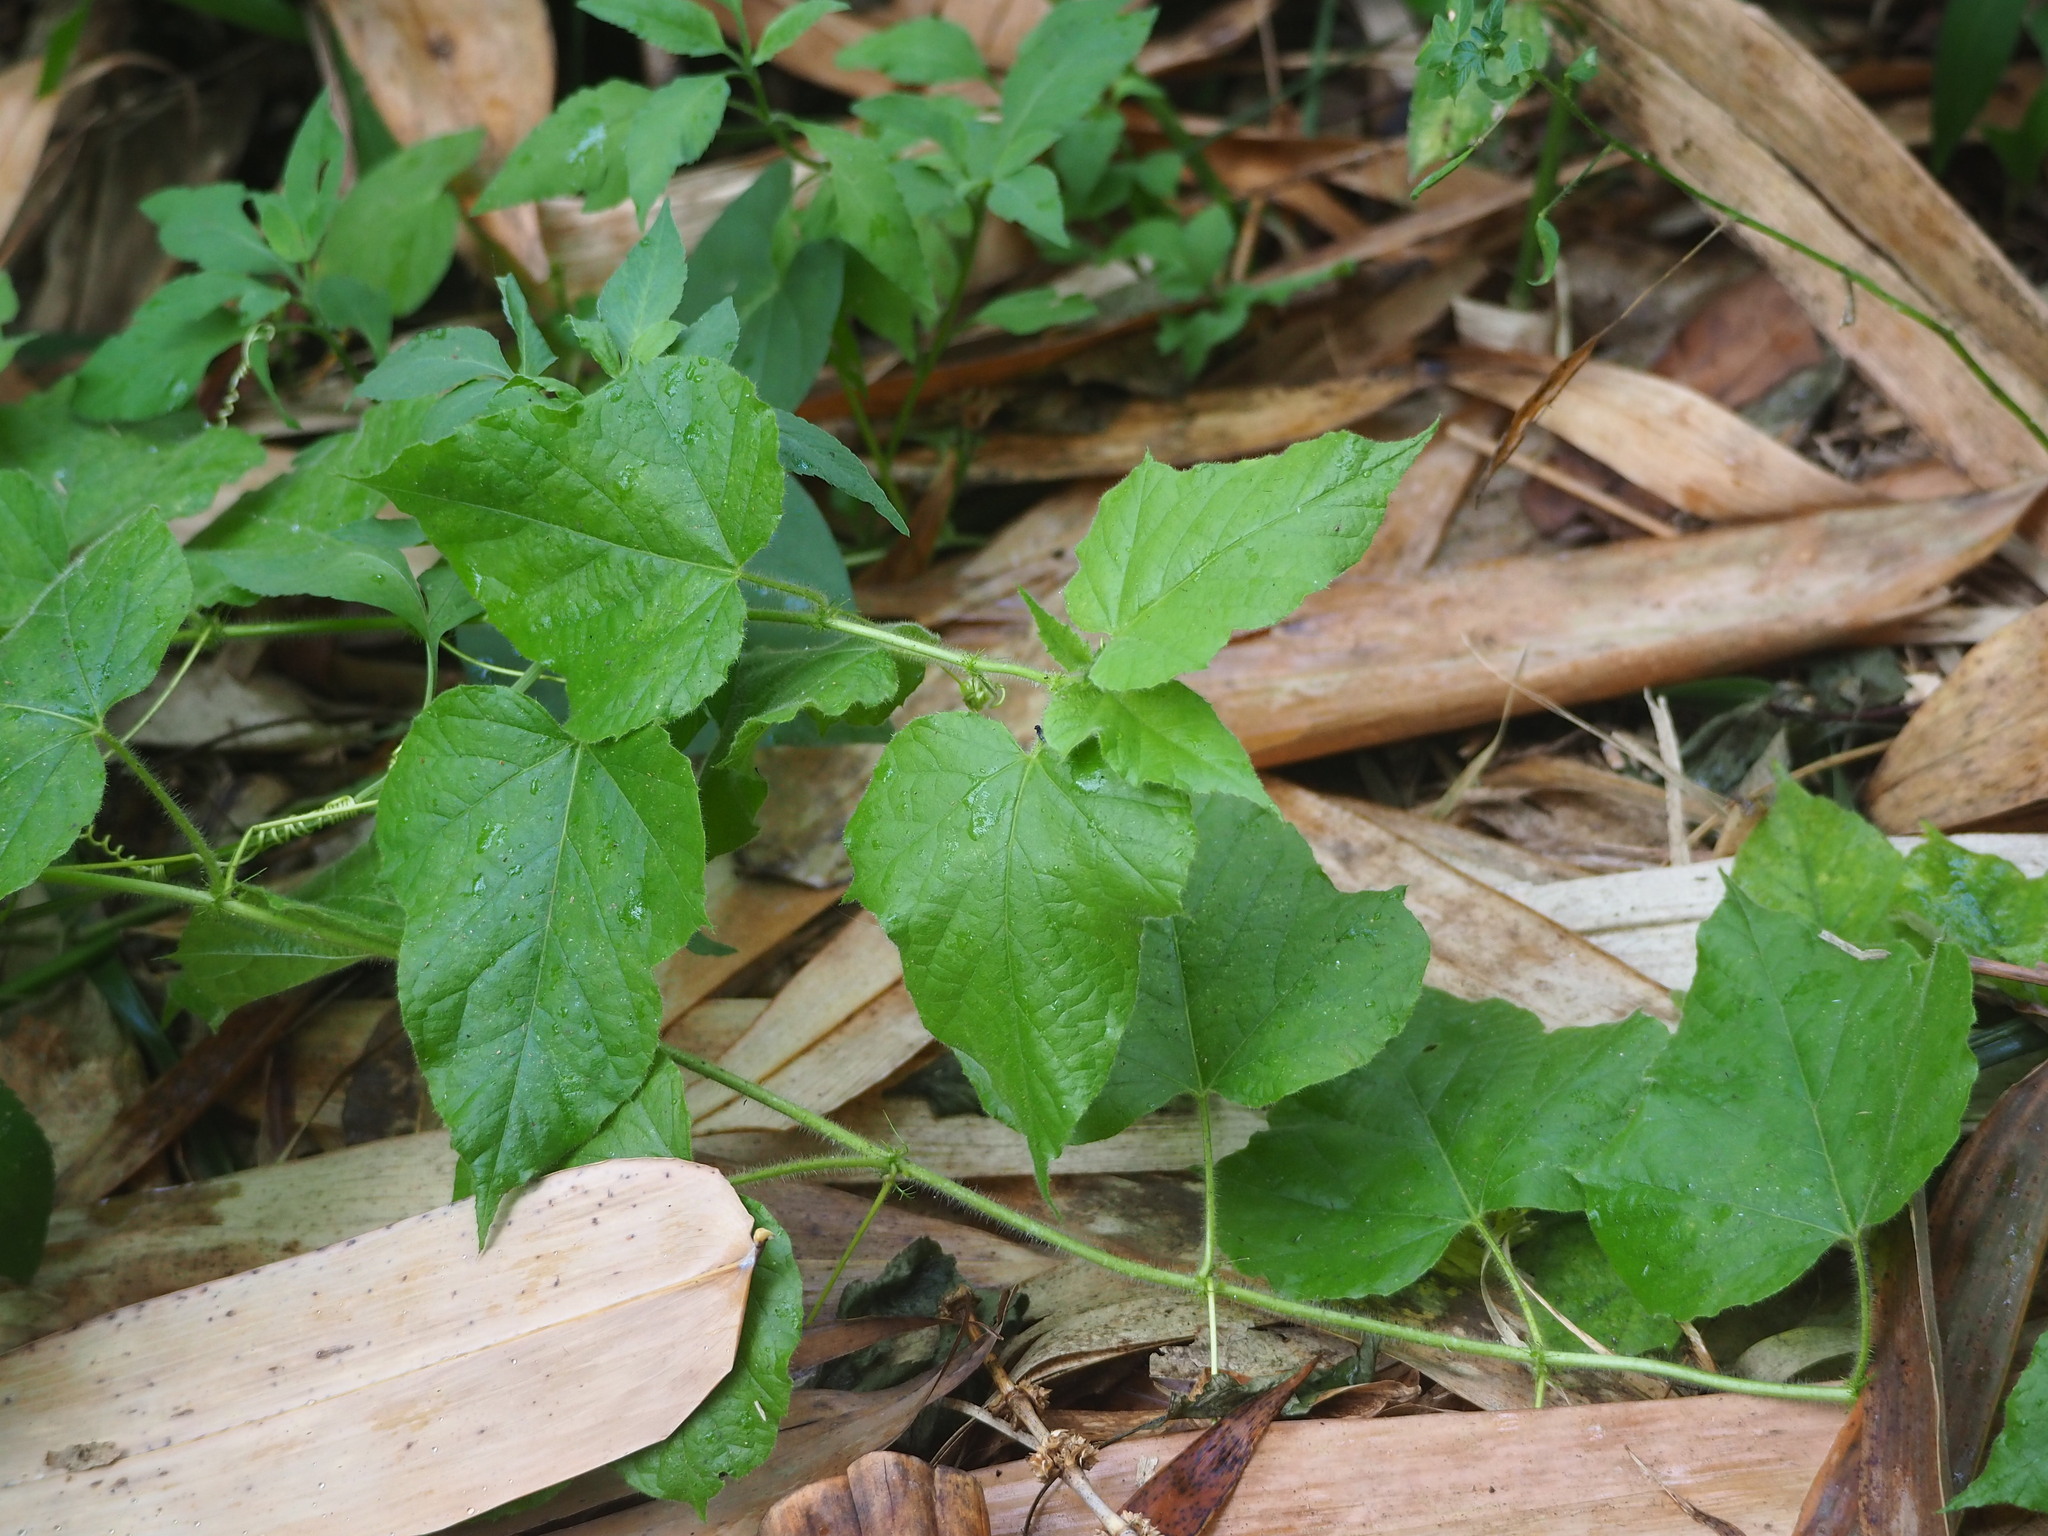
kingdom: Plantae
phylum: Tracheophyta
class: Magnoliopsida
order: Malpighiales
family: Passifloraceae
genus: Passiflora
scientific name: Passiflora vesicaria
